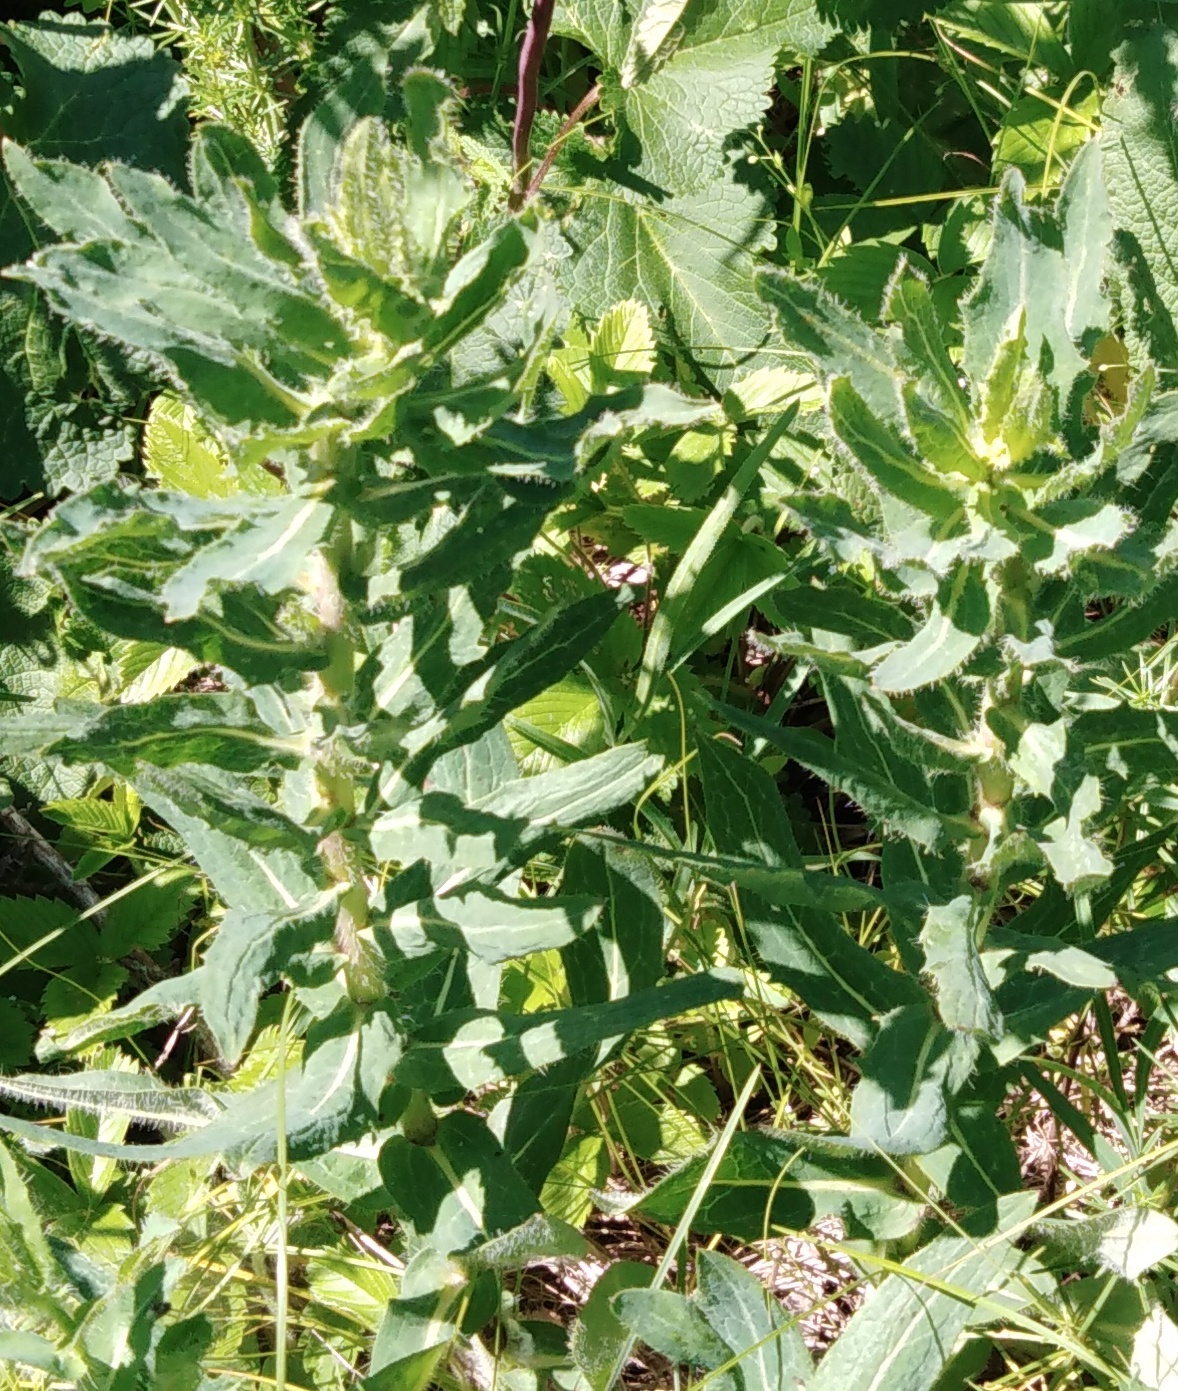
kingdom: Plantae
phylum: Tracheophyta
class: Magnoliopsida
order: Asterales
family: Asteraceae
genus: Hieracium
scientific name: Hieracium virosum
